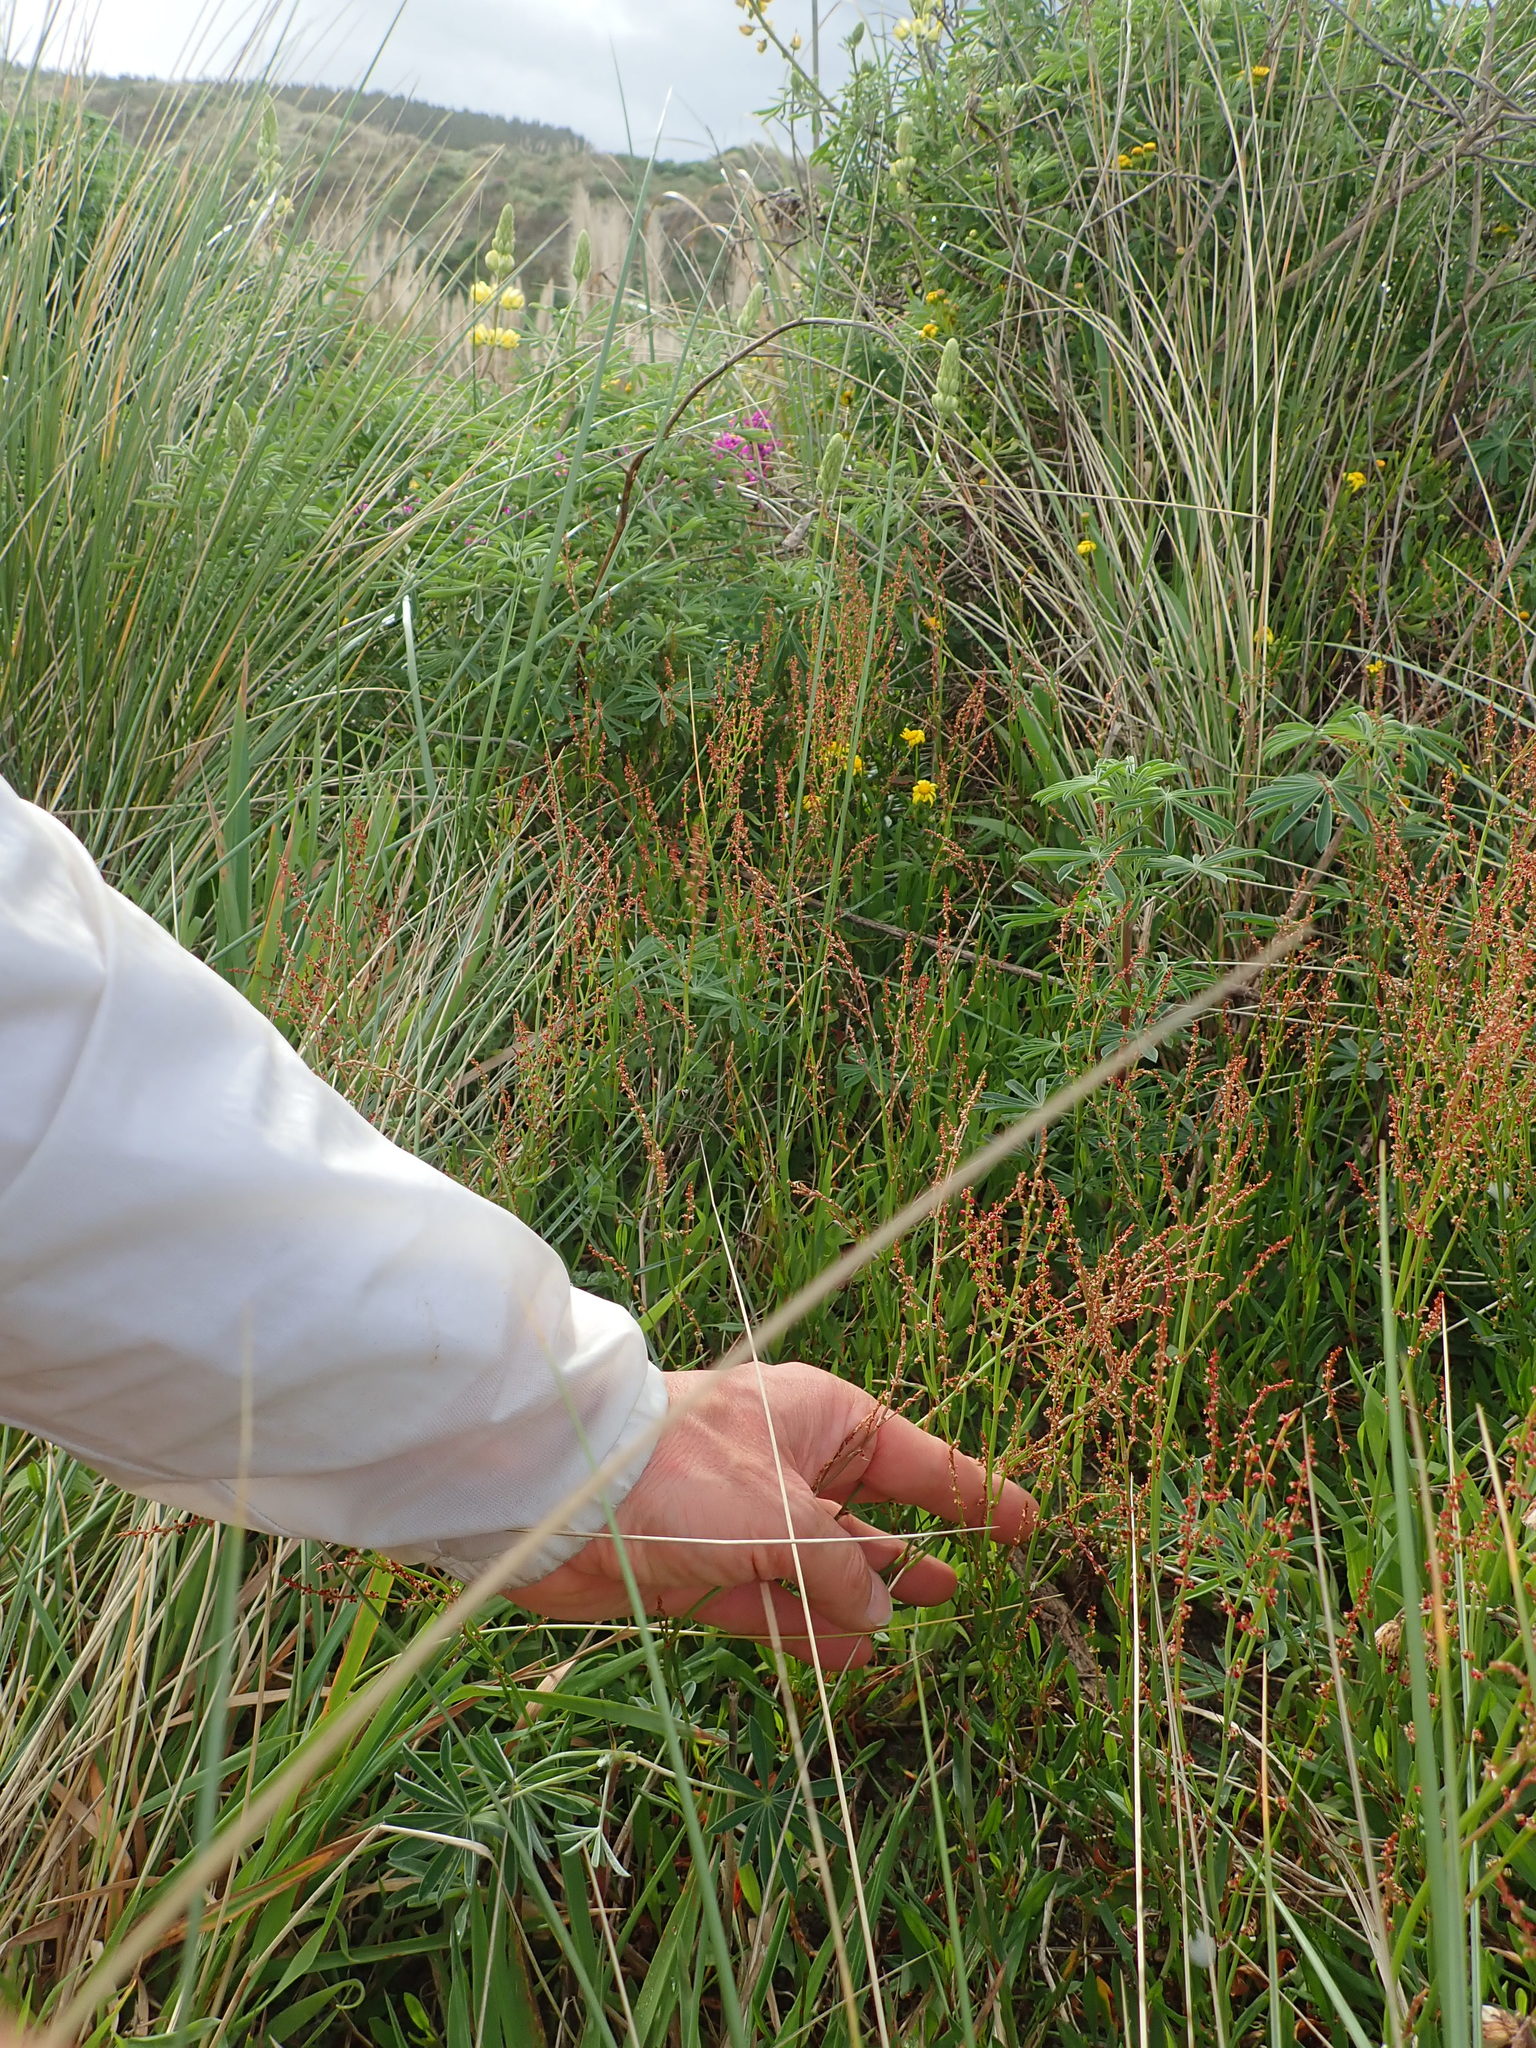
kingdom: Plantae
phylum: Tracheophyta
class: Magnoliopsida
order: Caryophyllales
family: Polygonaceae
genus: Rumex
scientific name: Rumex acetosella
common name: Common sheep sorrel
